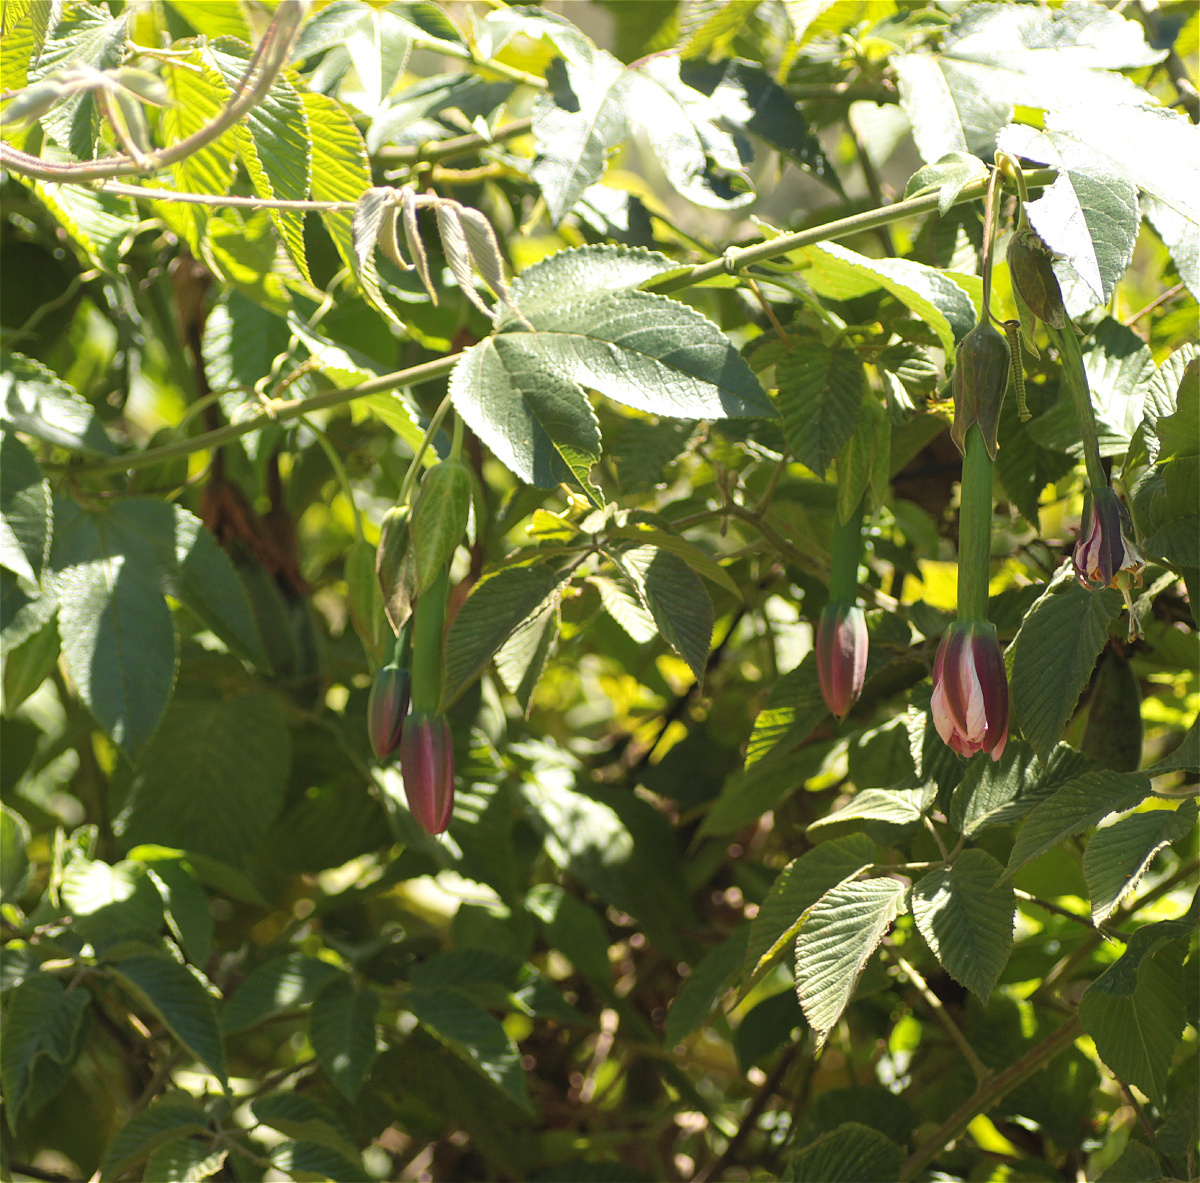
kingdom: Plantae
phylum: Tracheophyta
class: Magnoliopsida
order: Malpighiales
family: Passifloraceae
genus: Passiflora
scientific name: Passiflora tripartita
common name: Banana poka
